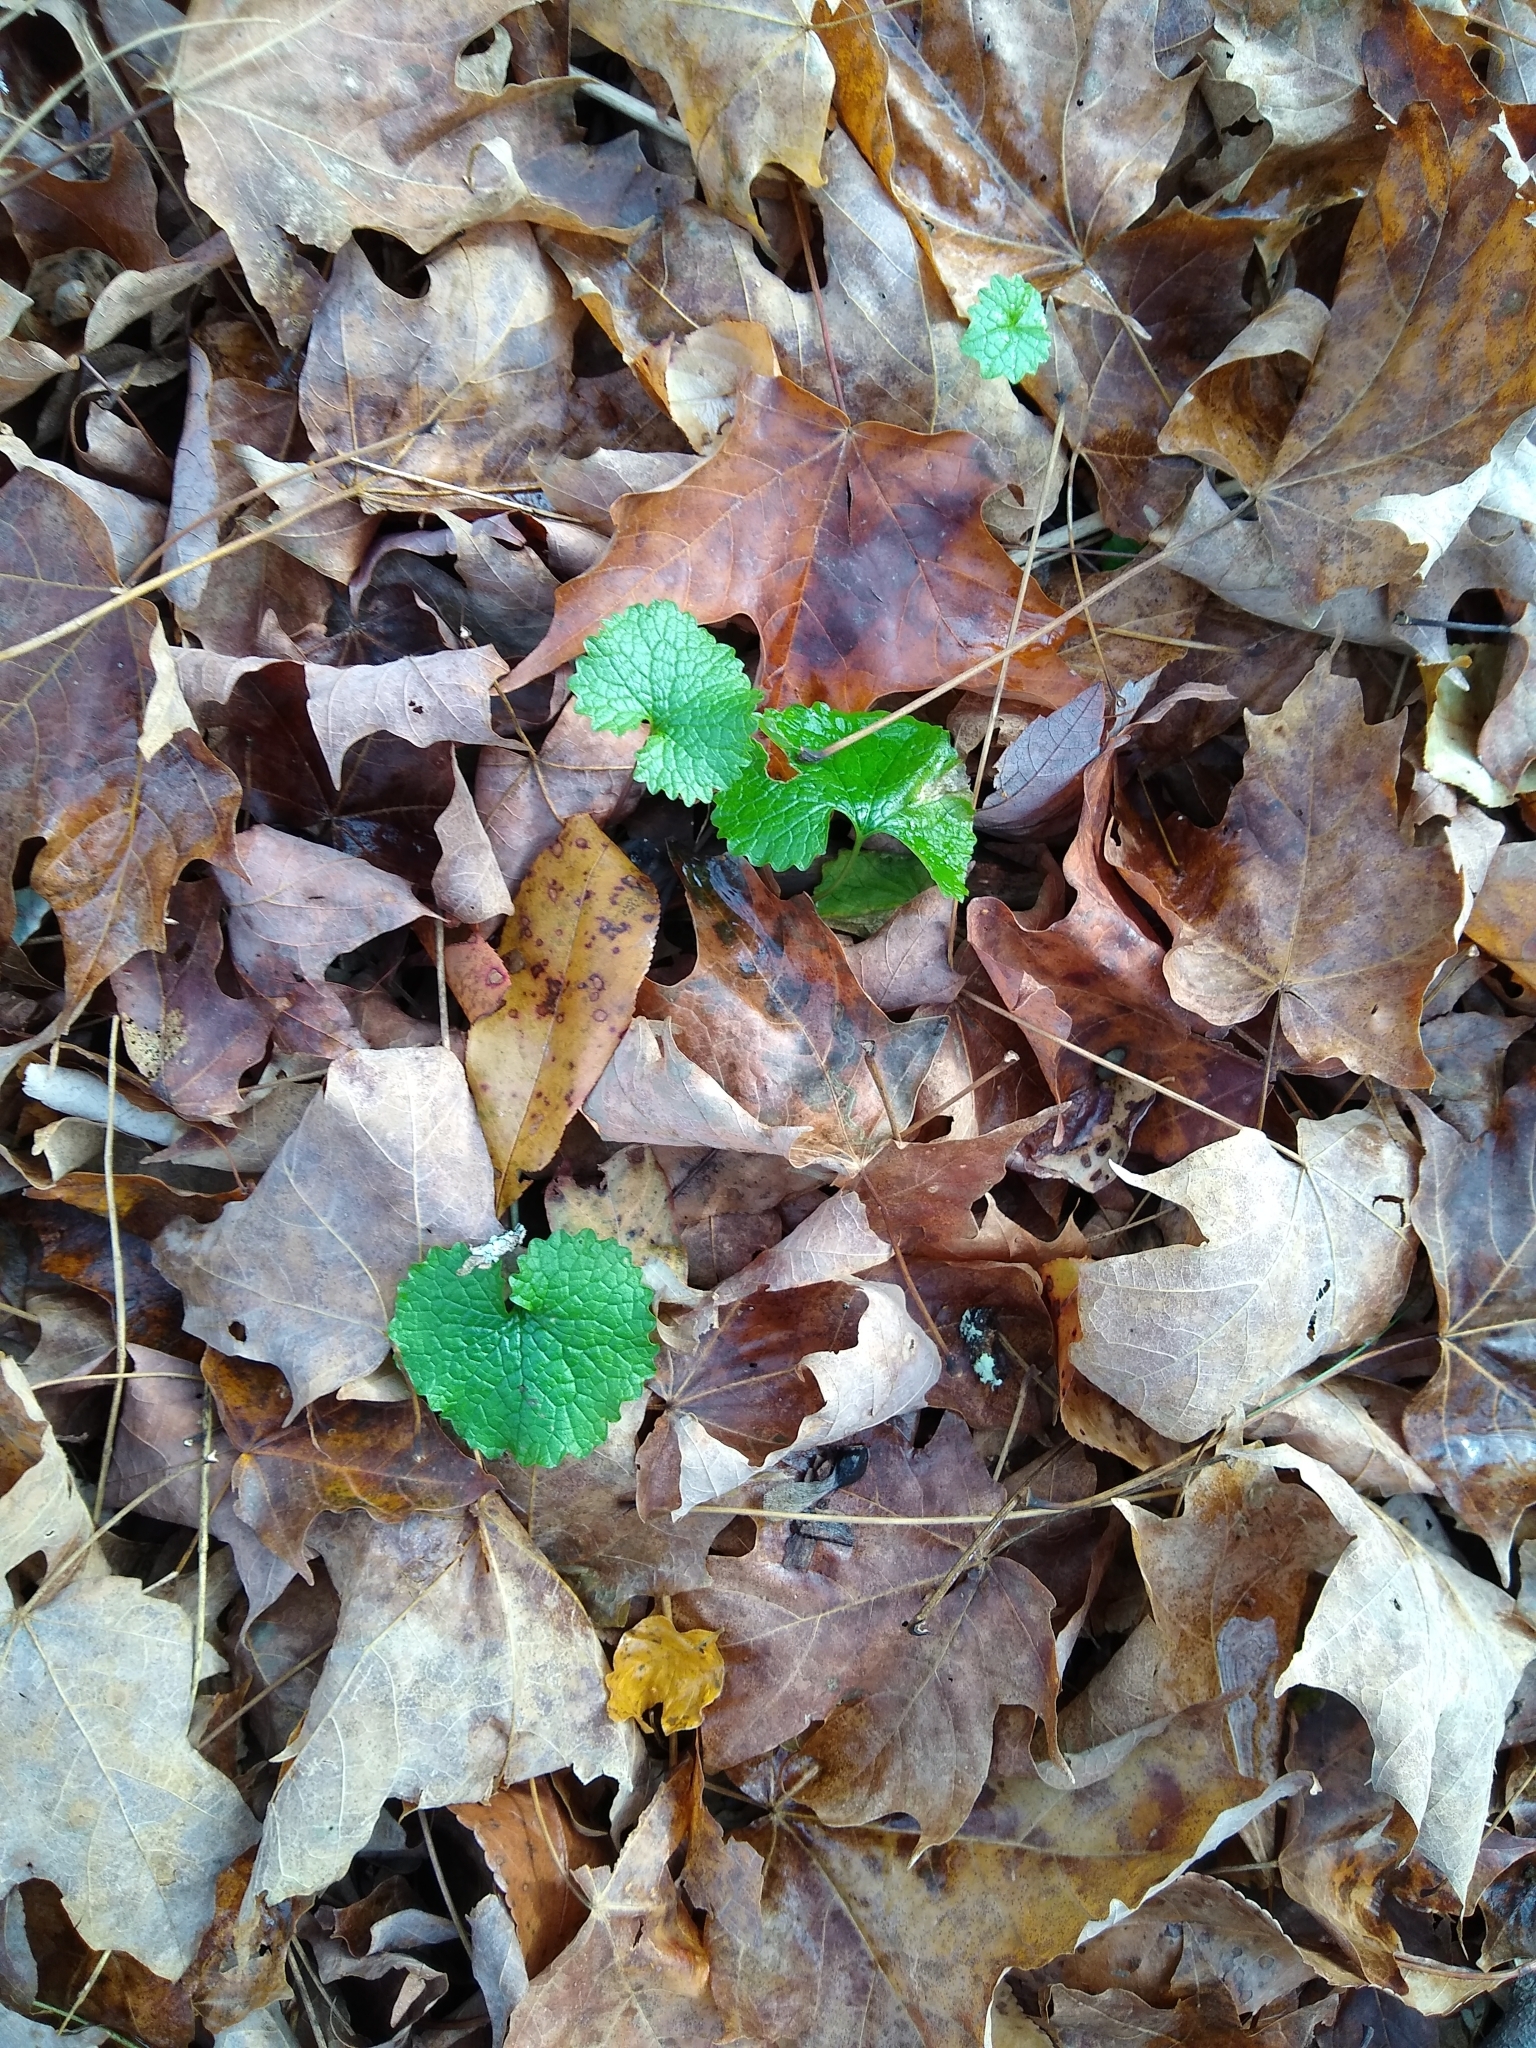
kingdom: Plantae
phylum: Tracheophyta
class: Magnoliopsida
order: Brassicales
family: Brassicaceae
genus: Alliaria
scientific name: Alliaria petiolata
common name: Garlic mustard
